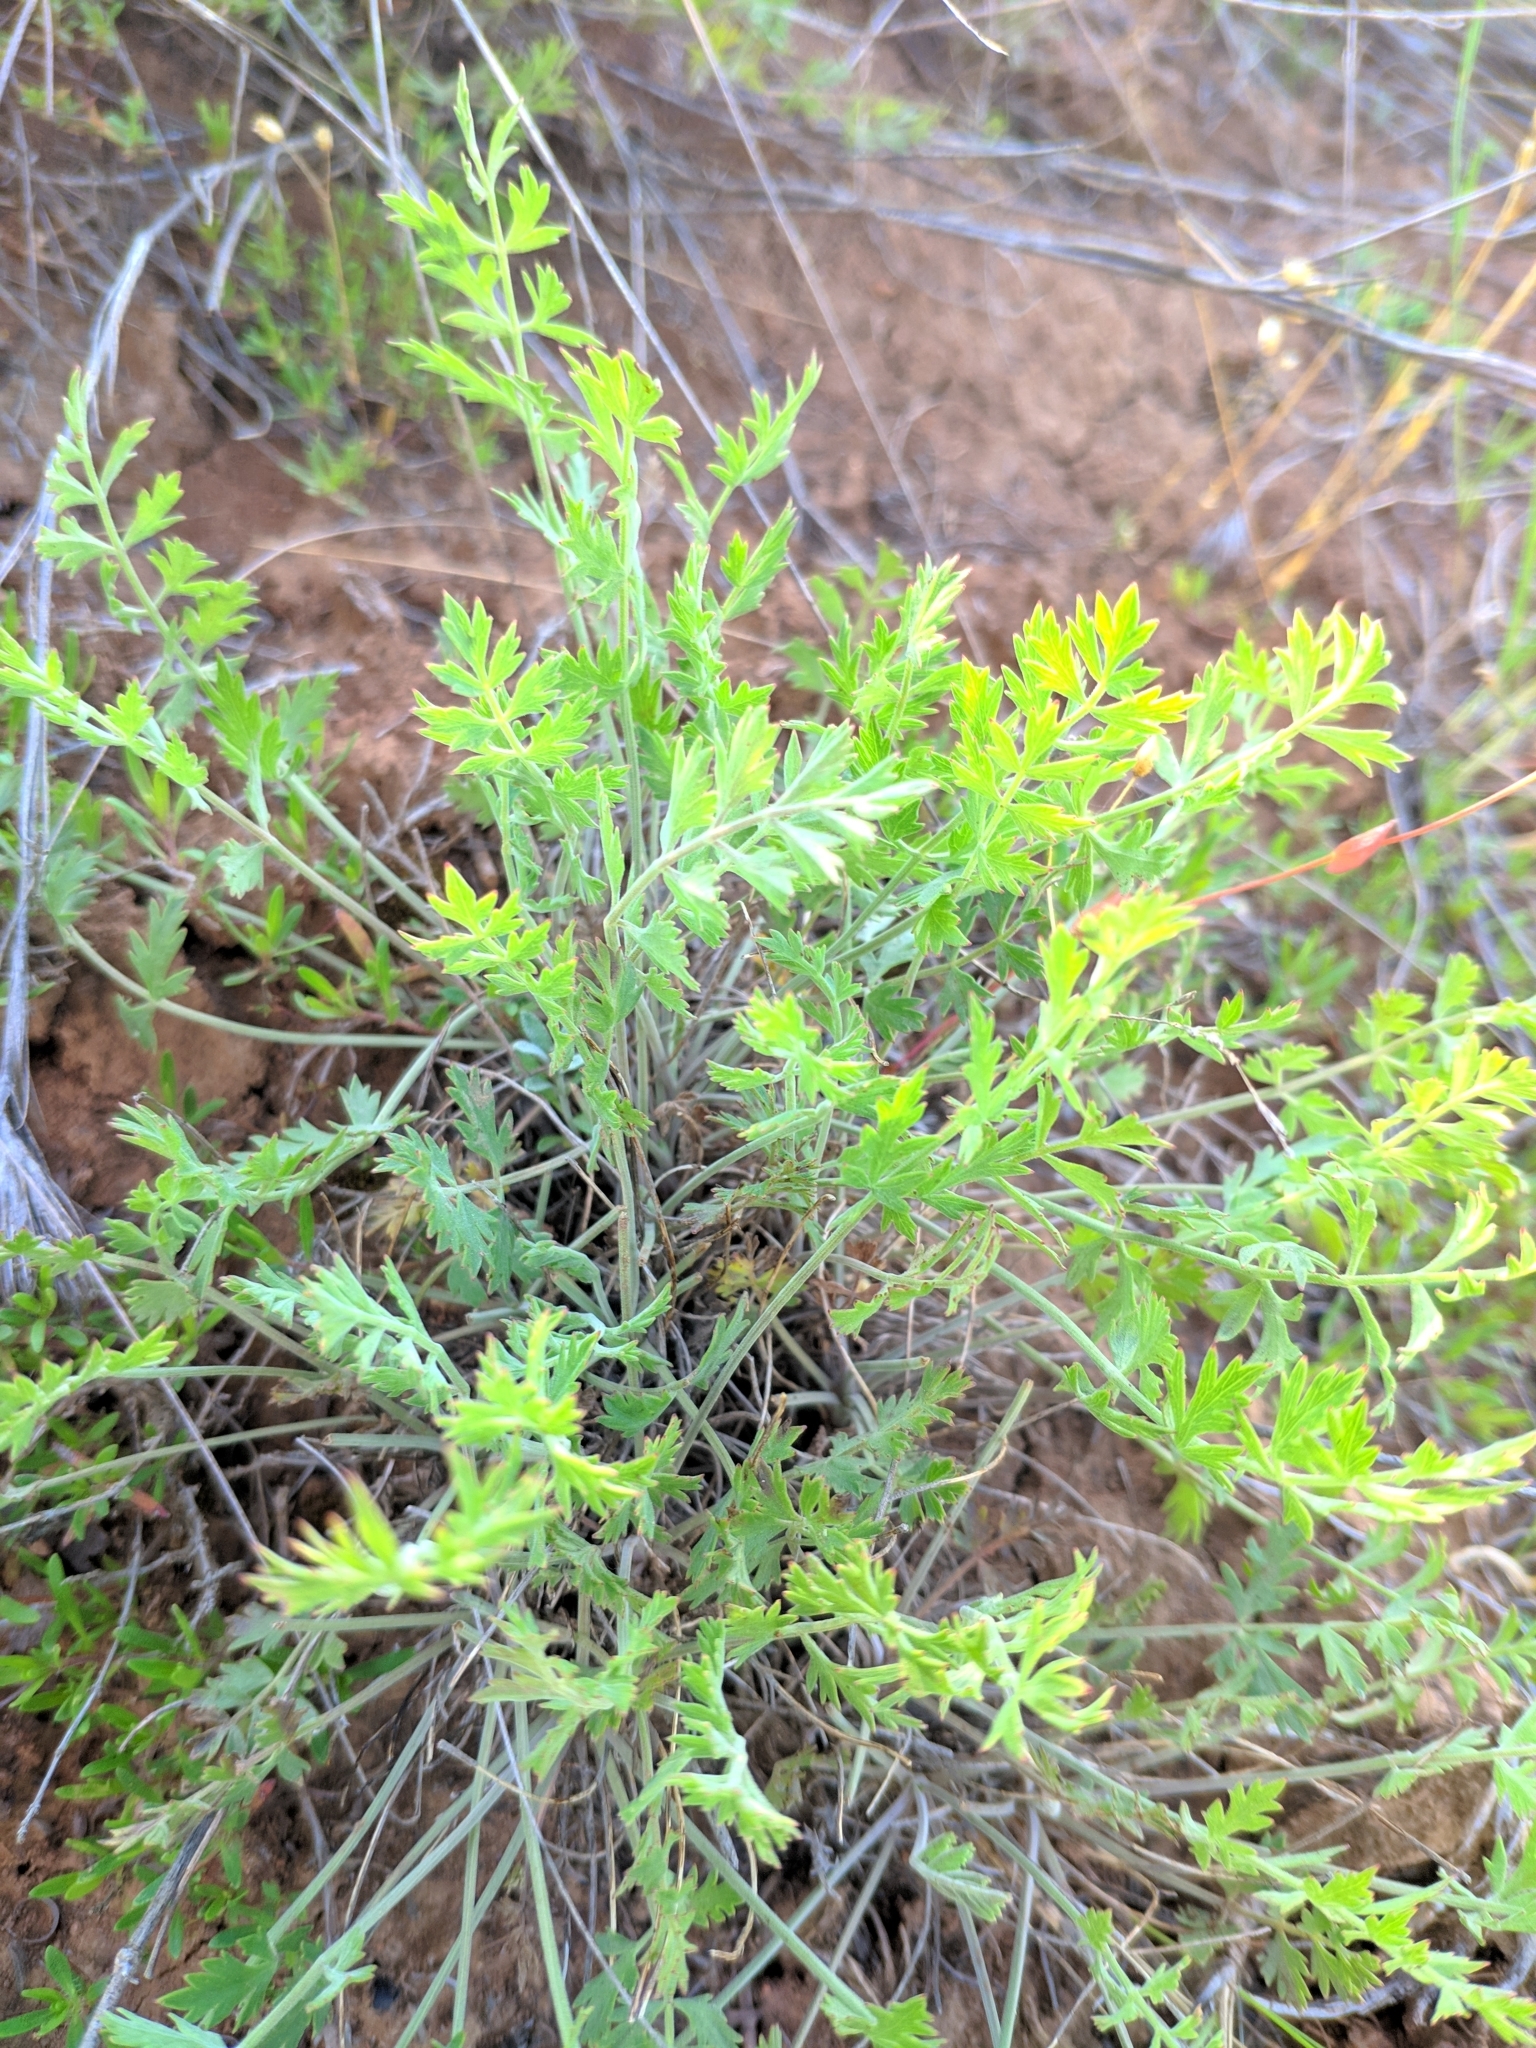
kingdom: Plantae
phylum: Tracheophyta
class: Magnoliopsida
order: Apiales
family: Apiaceae
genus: Pimpinella
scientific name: Pimpinella tragium
